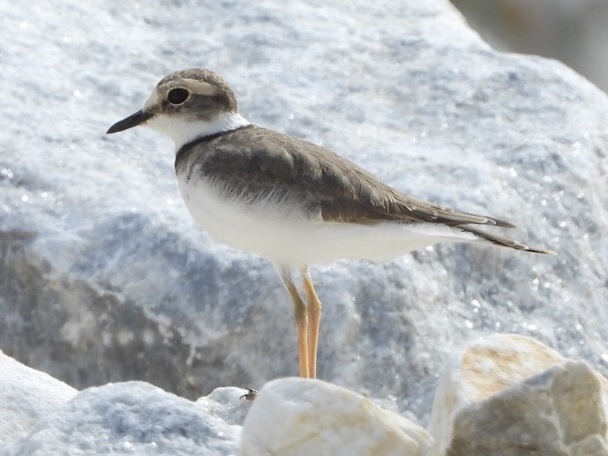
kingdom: Animalia
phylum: Chordata
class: Aves
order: Charadriiformes
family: Charadriidae
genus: Charadrius
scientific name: Charadrius placidus
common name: Long-billed plover
